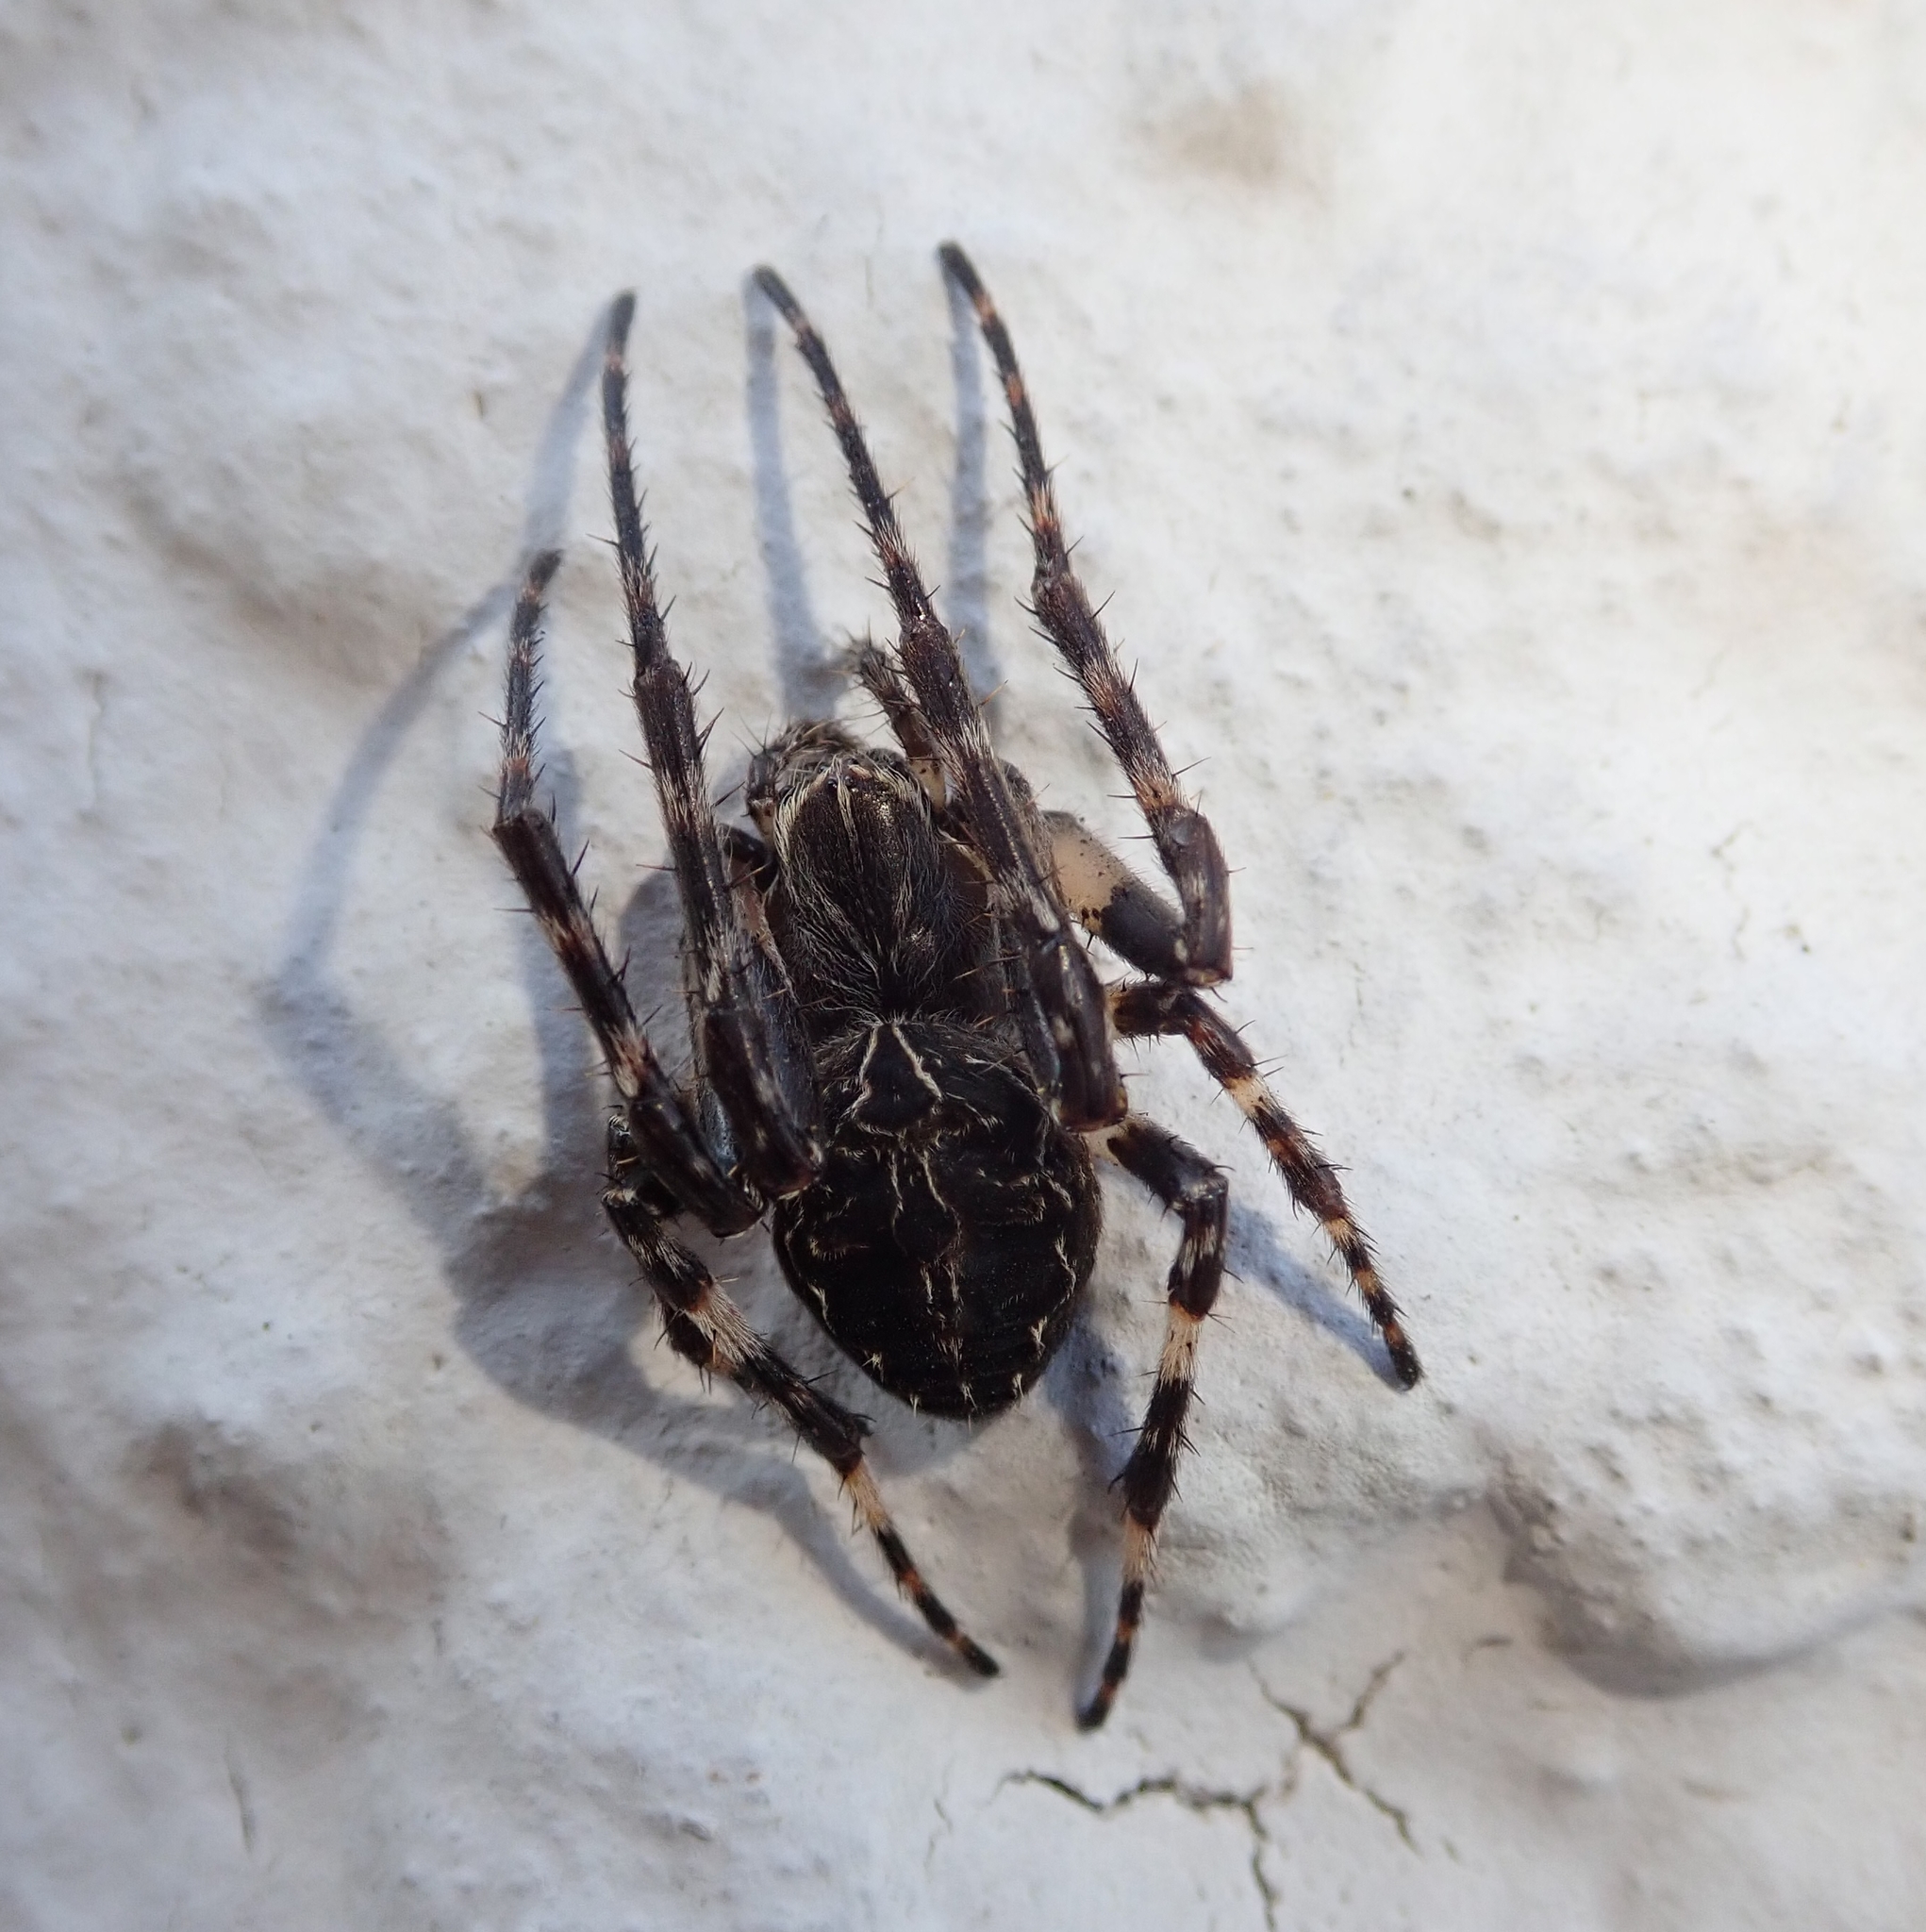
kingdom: Animalia
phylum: Arthropoda
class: Arachnida
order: Araneae
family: Araneidae
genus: Larinioides
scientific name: Larinioides sclopetarius
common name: Bridge orbweaver
